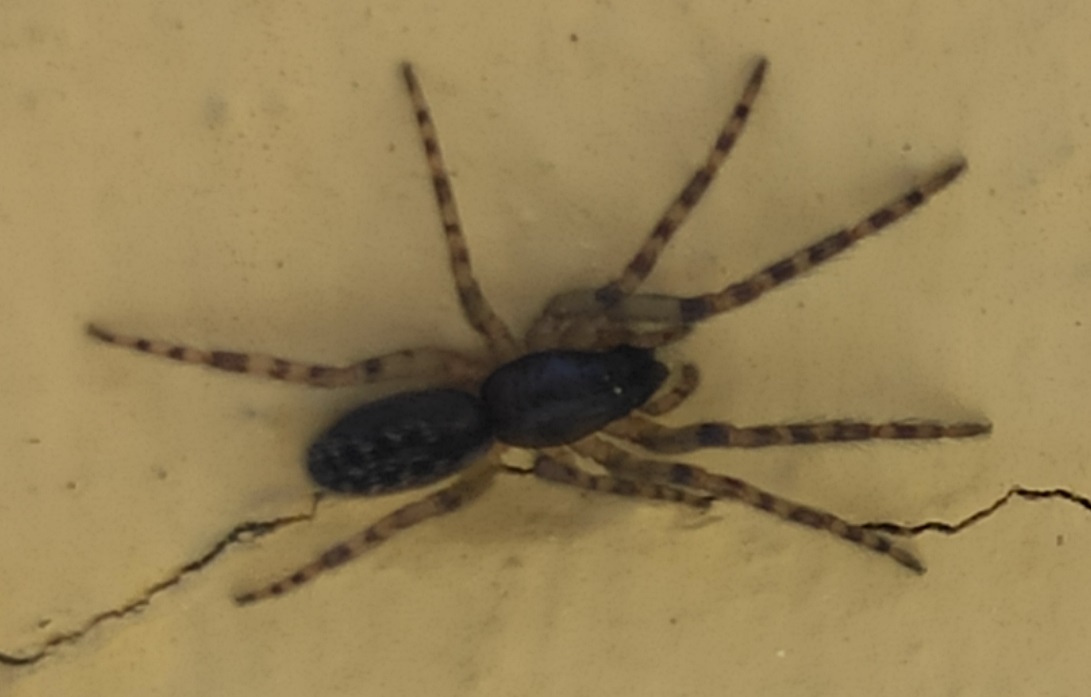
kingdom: Animalia
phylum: Arthropoda
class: Arachnida
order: Araneae
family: Segestriidae
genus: Segestria
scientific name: Segestria bavarica
